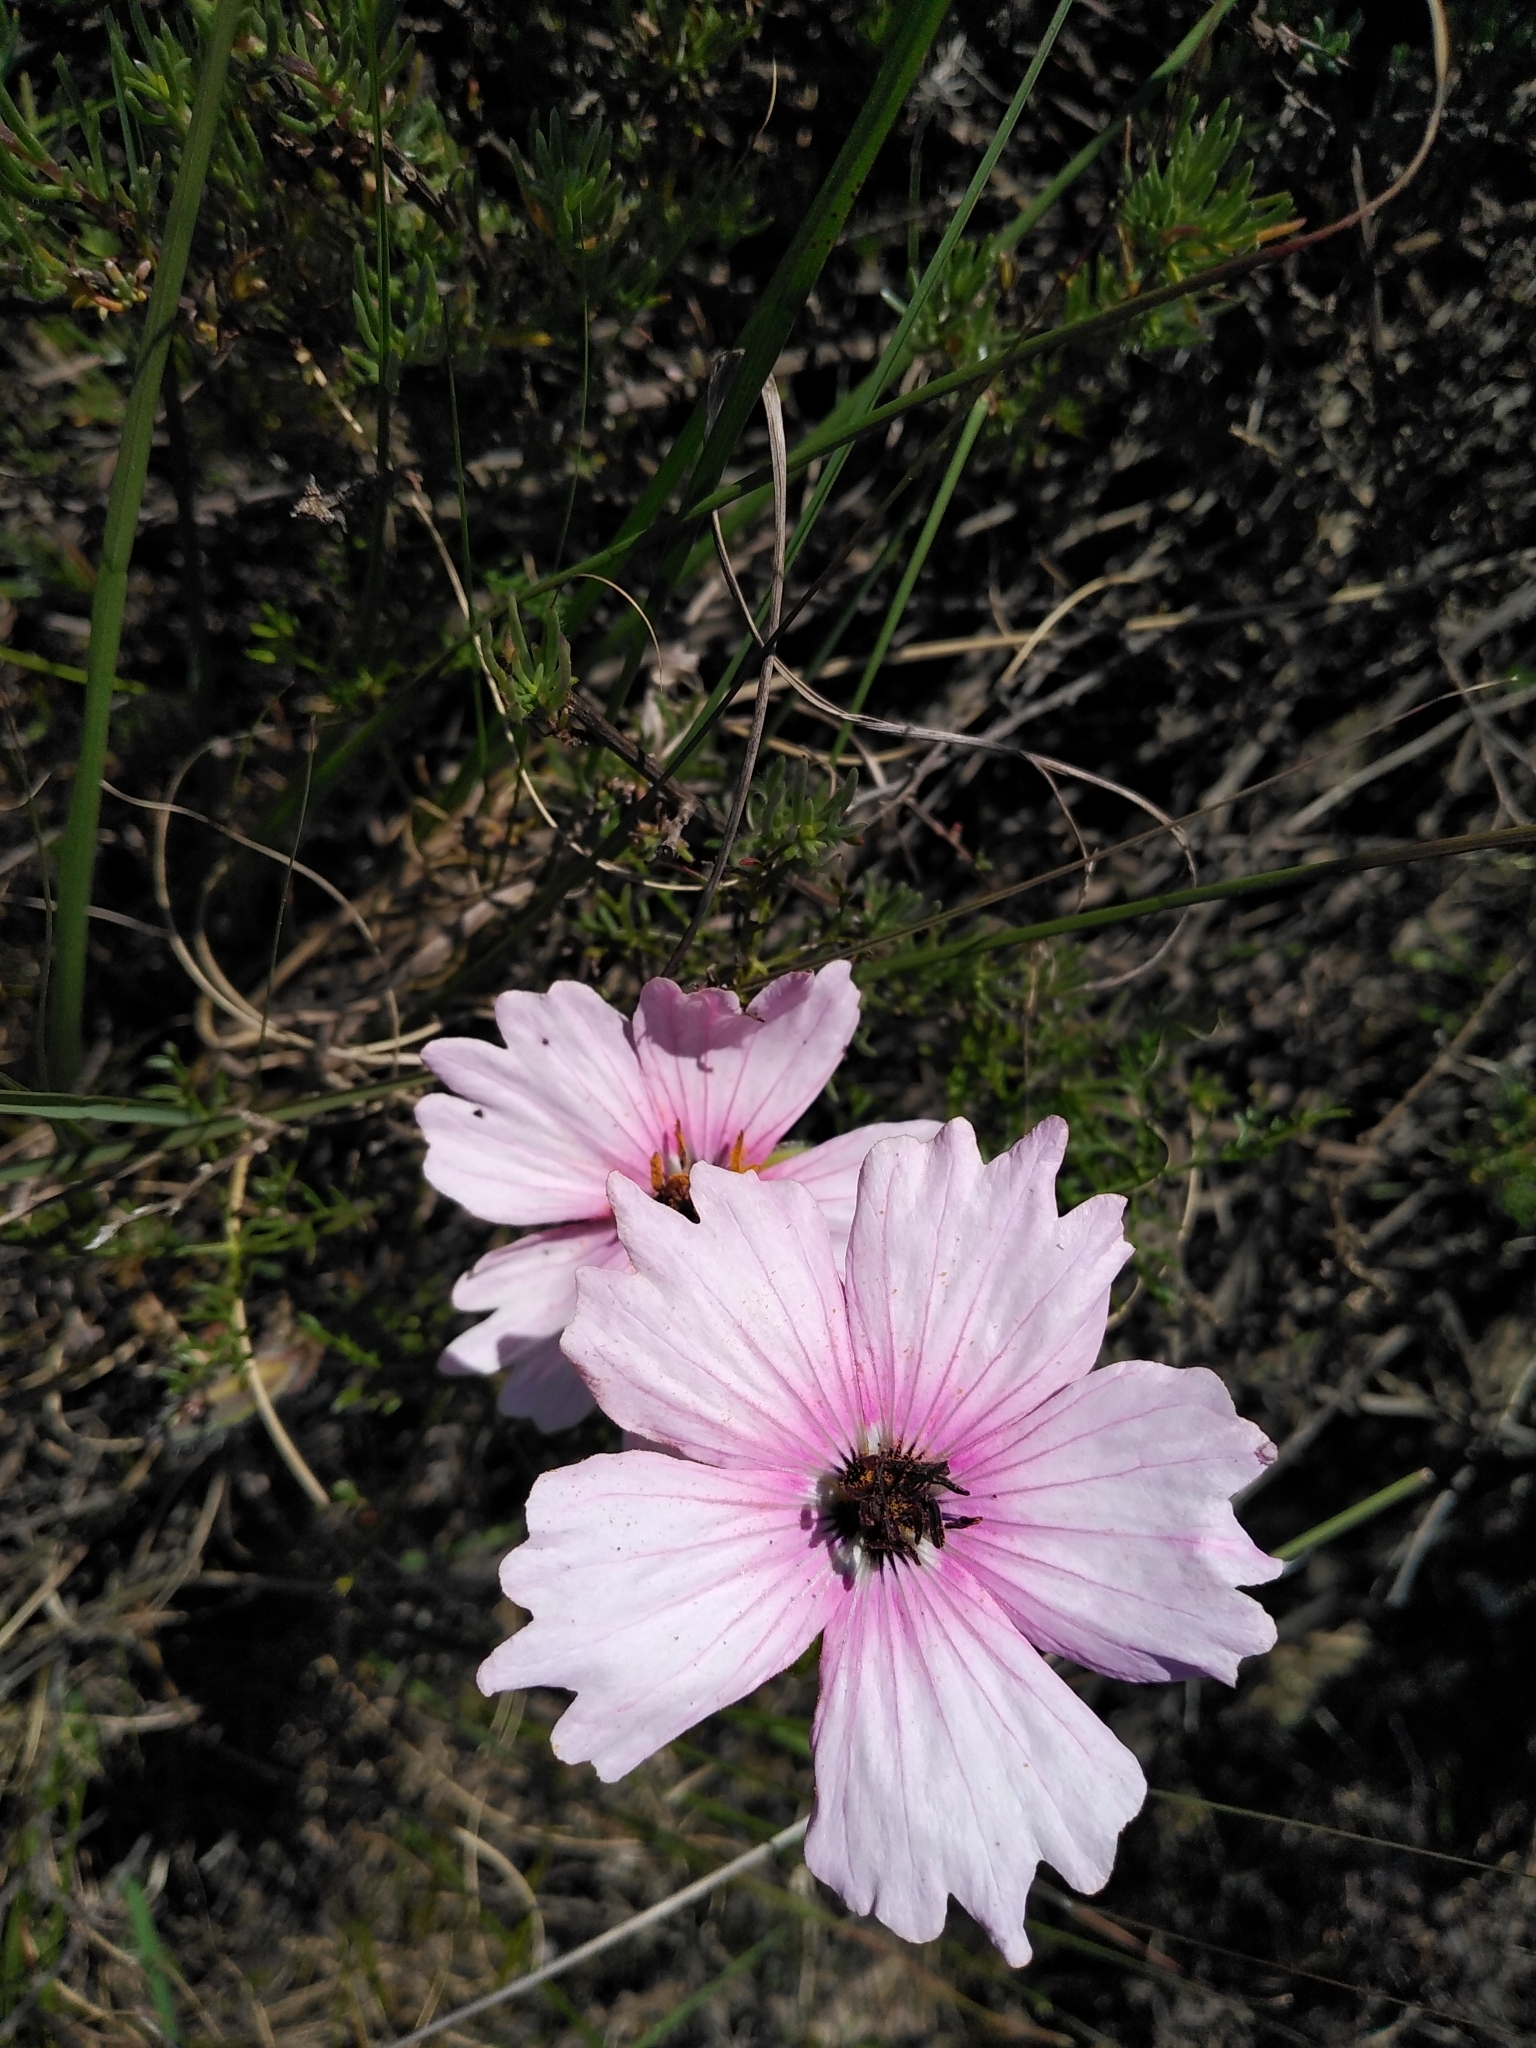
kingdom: Plantae
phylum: Tracheophyta
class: Magnoliopsida
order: Geraniales
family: Geraniaceae
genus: Monsonia
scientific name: Monsonia speciosa
